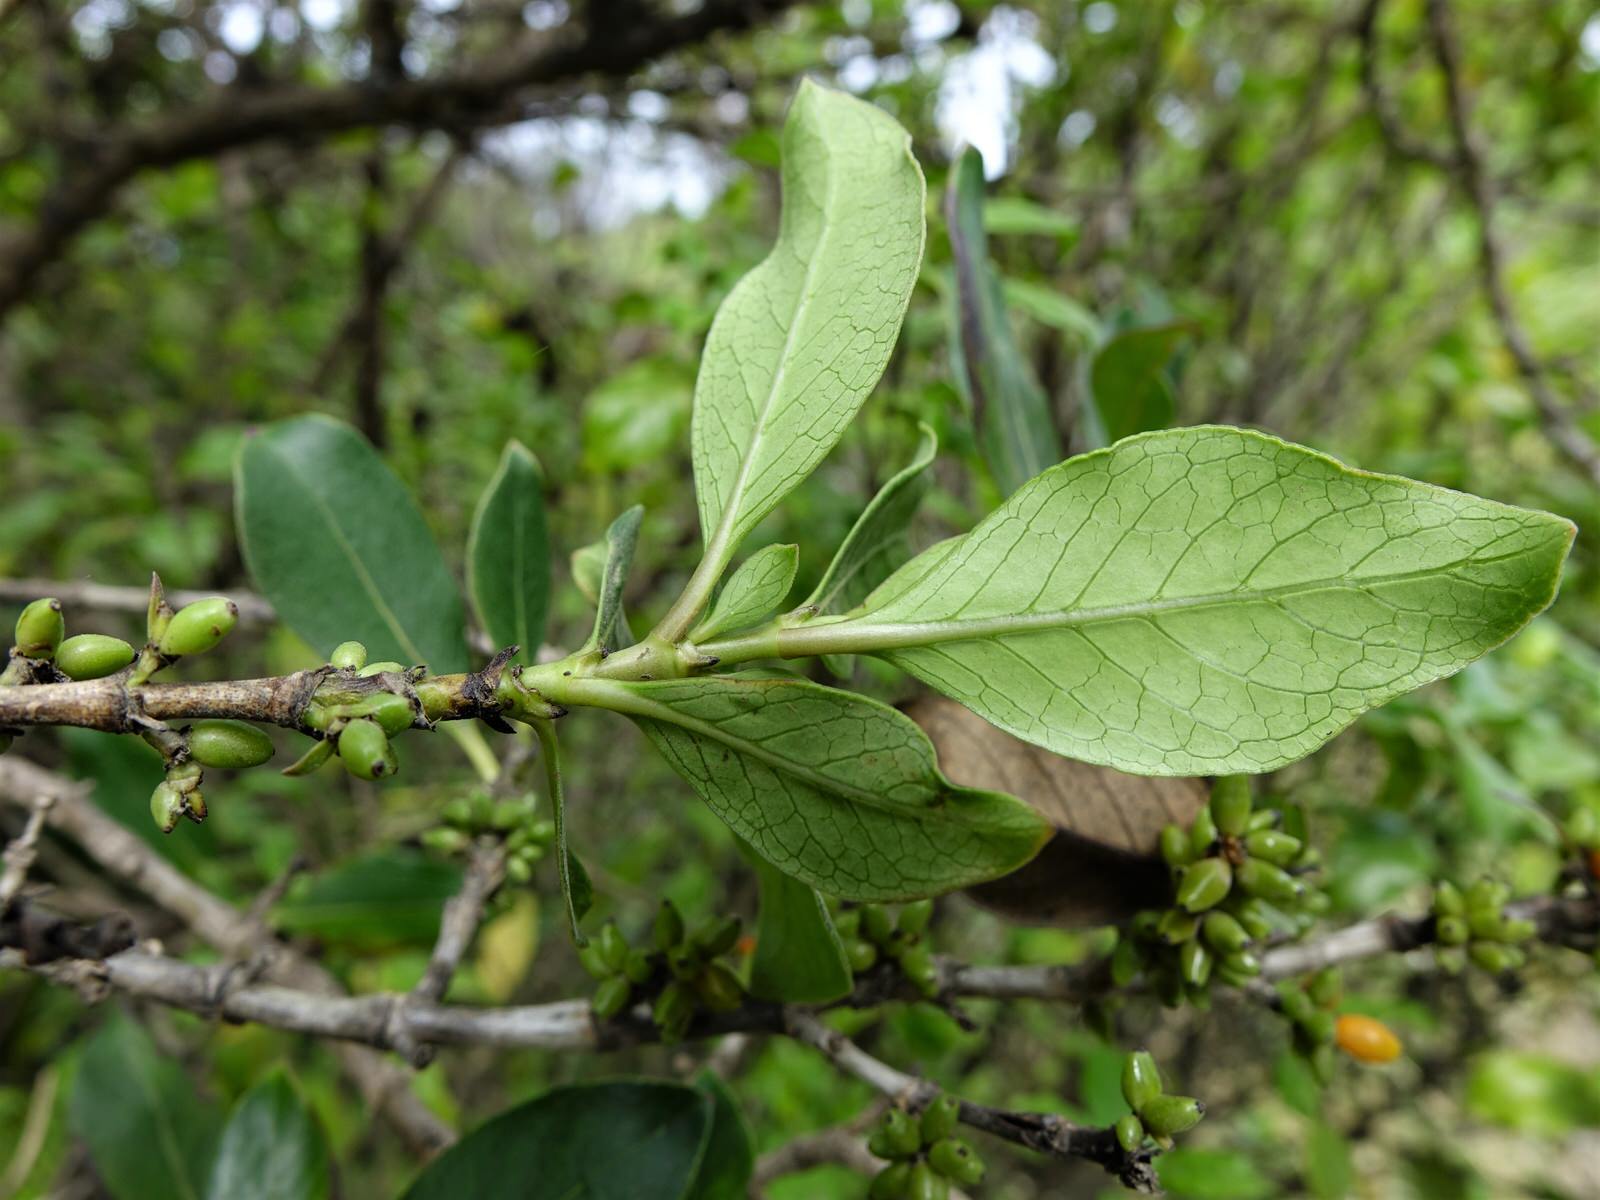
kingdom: Plantae
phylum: Tracheophyta
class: Magnoliopsida
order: Gentianales
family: Rubiaceae
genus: Coprosma
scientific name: Coprosma robusta
